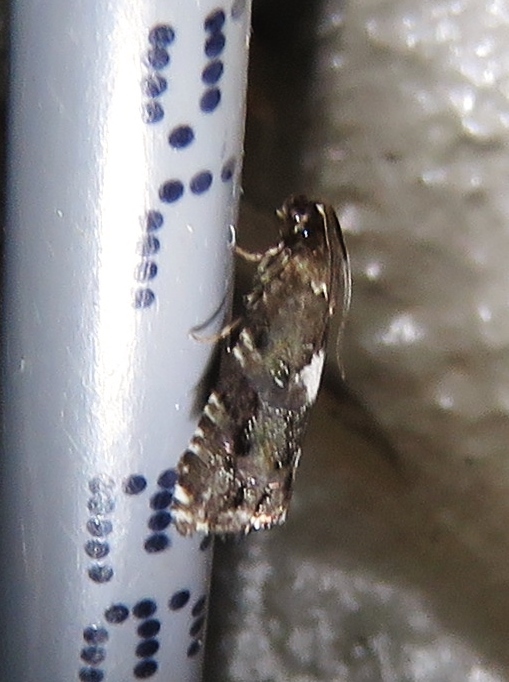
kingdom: Animalia
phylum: Arthropoda
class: Insecta
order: Lepidoptera
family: Tortricidae
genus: Cydia
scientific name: Cydia albimaculana
